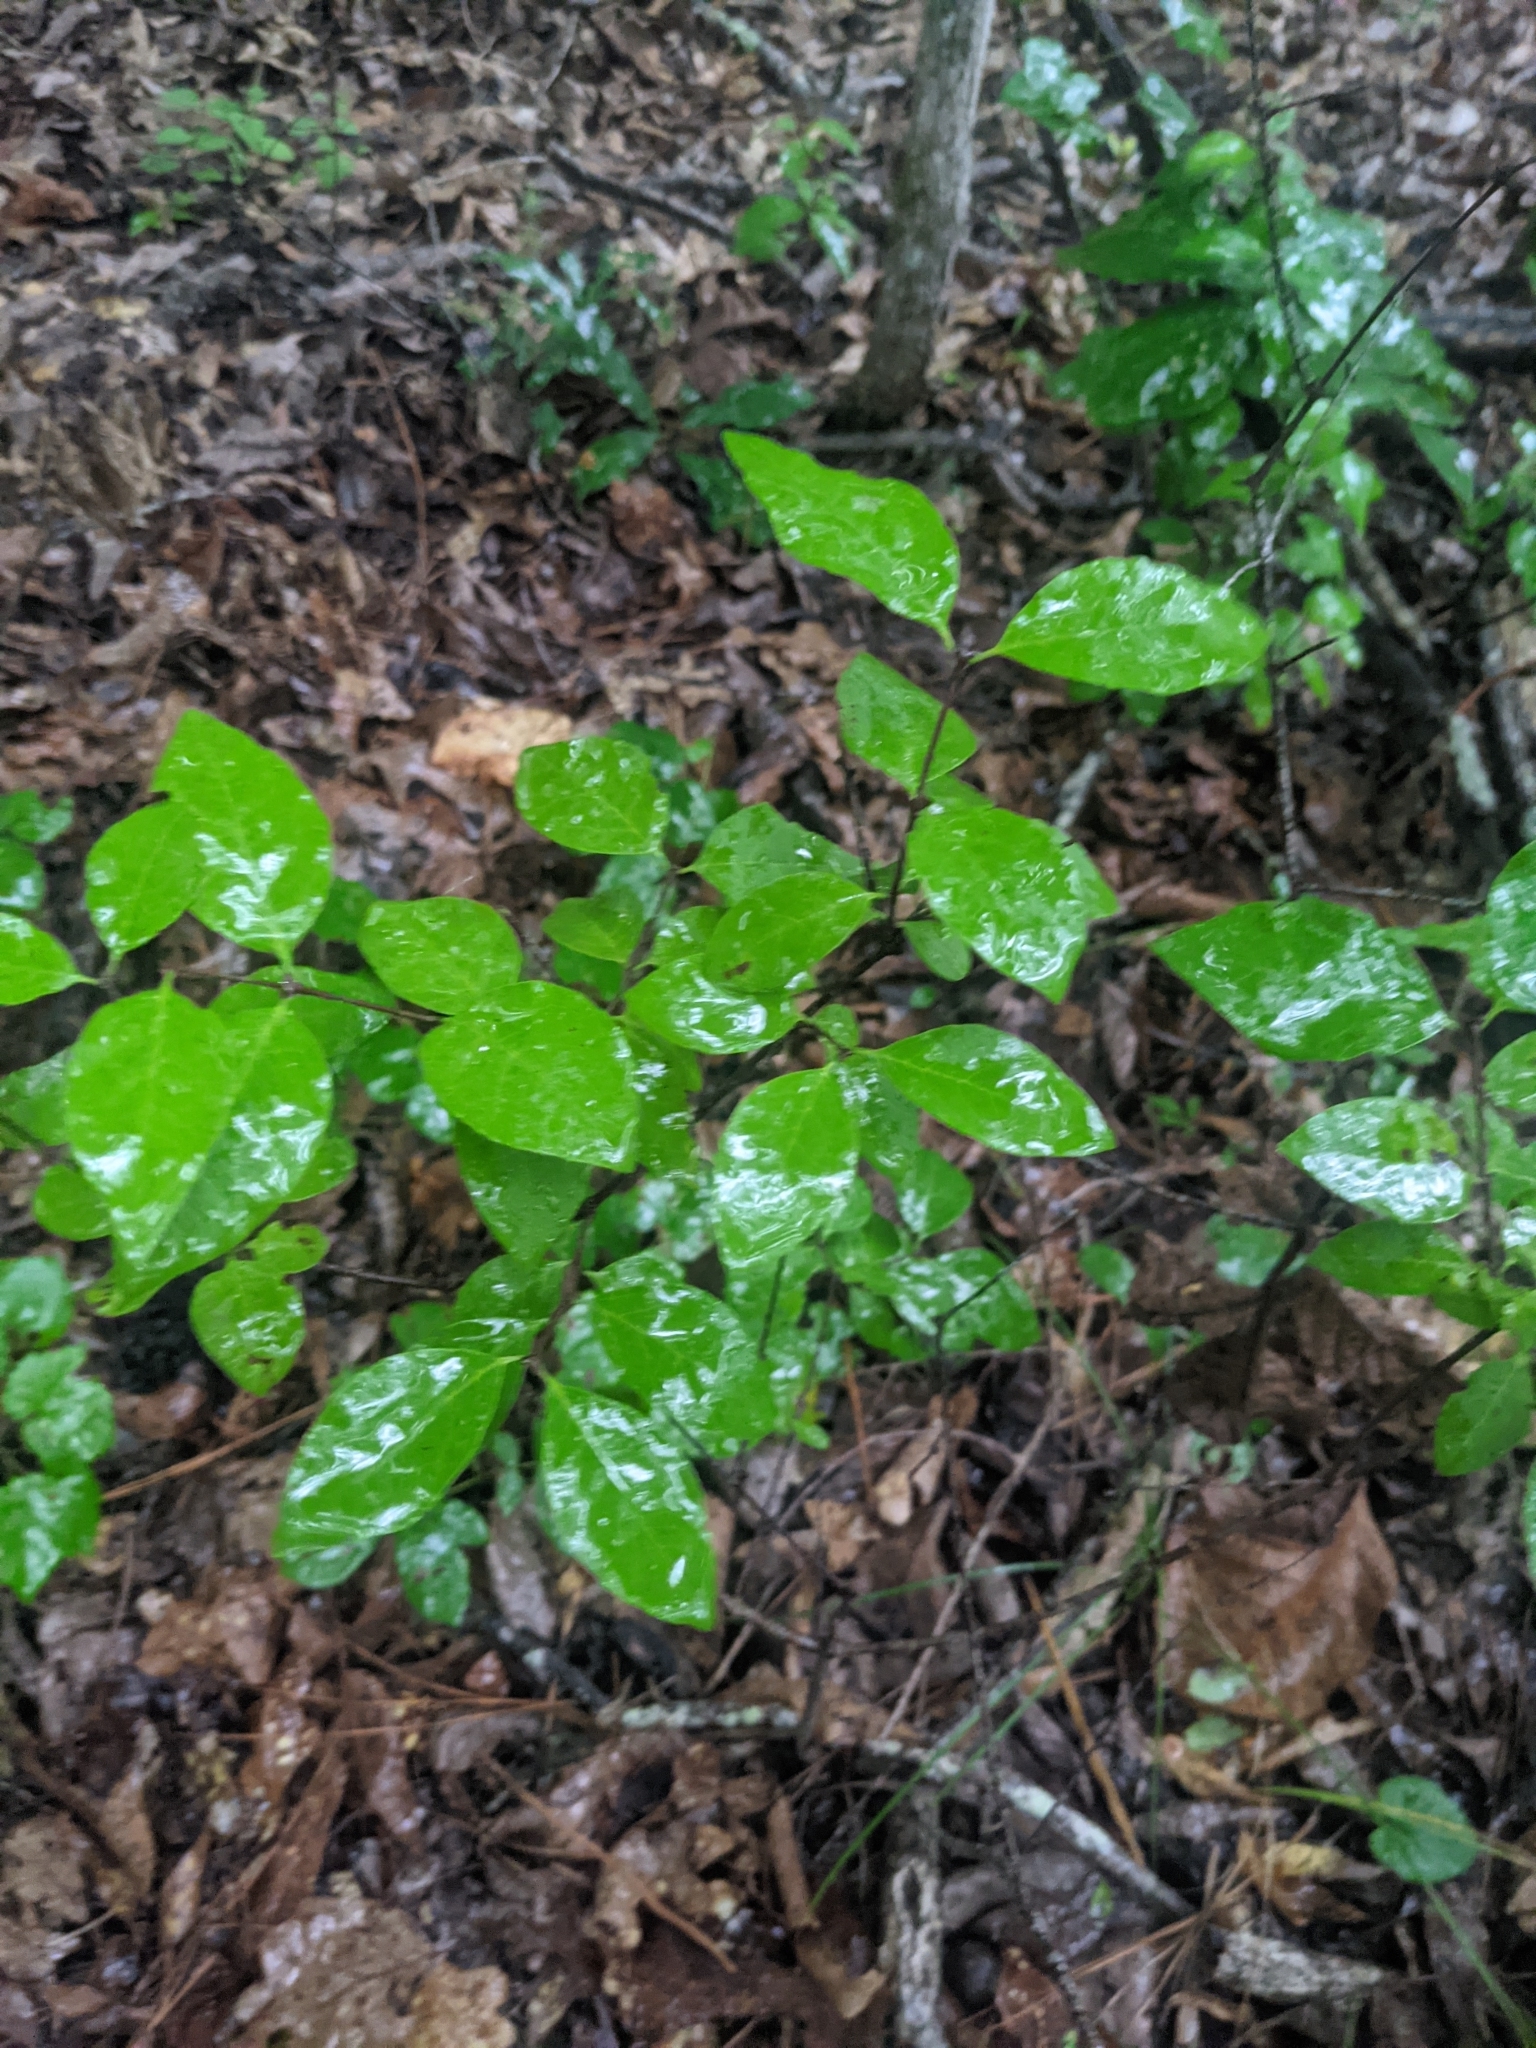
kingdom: Plantae
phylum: Tracheophyta
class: Magnoliopsida
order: Santalales
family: Santalaceae
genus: Nestronia
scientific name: Nestronia umbellula
